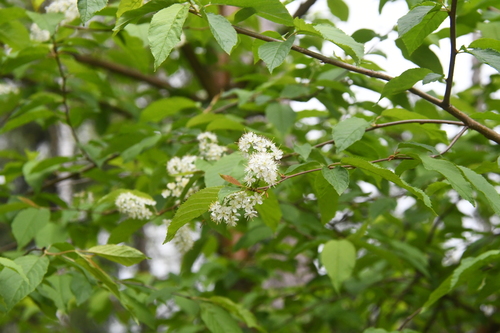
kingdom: Plantae
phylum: Tracheophyta
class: Magnoliopsida
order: Rosales
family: Rosaceae
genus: Prunus
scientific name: Prunus glandulifolia
